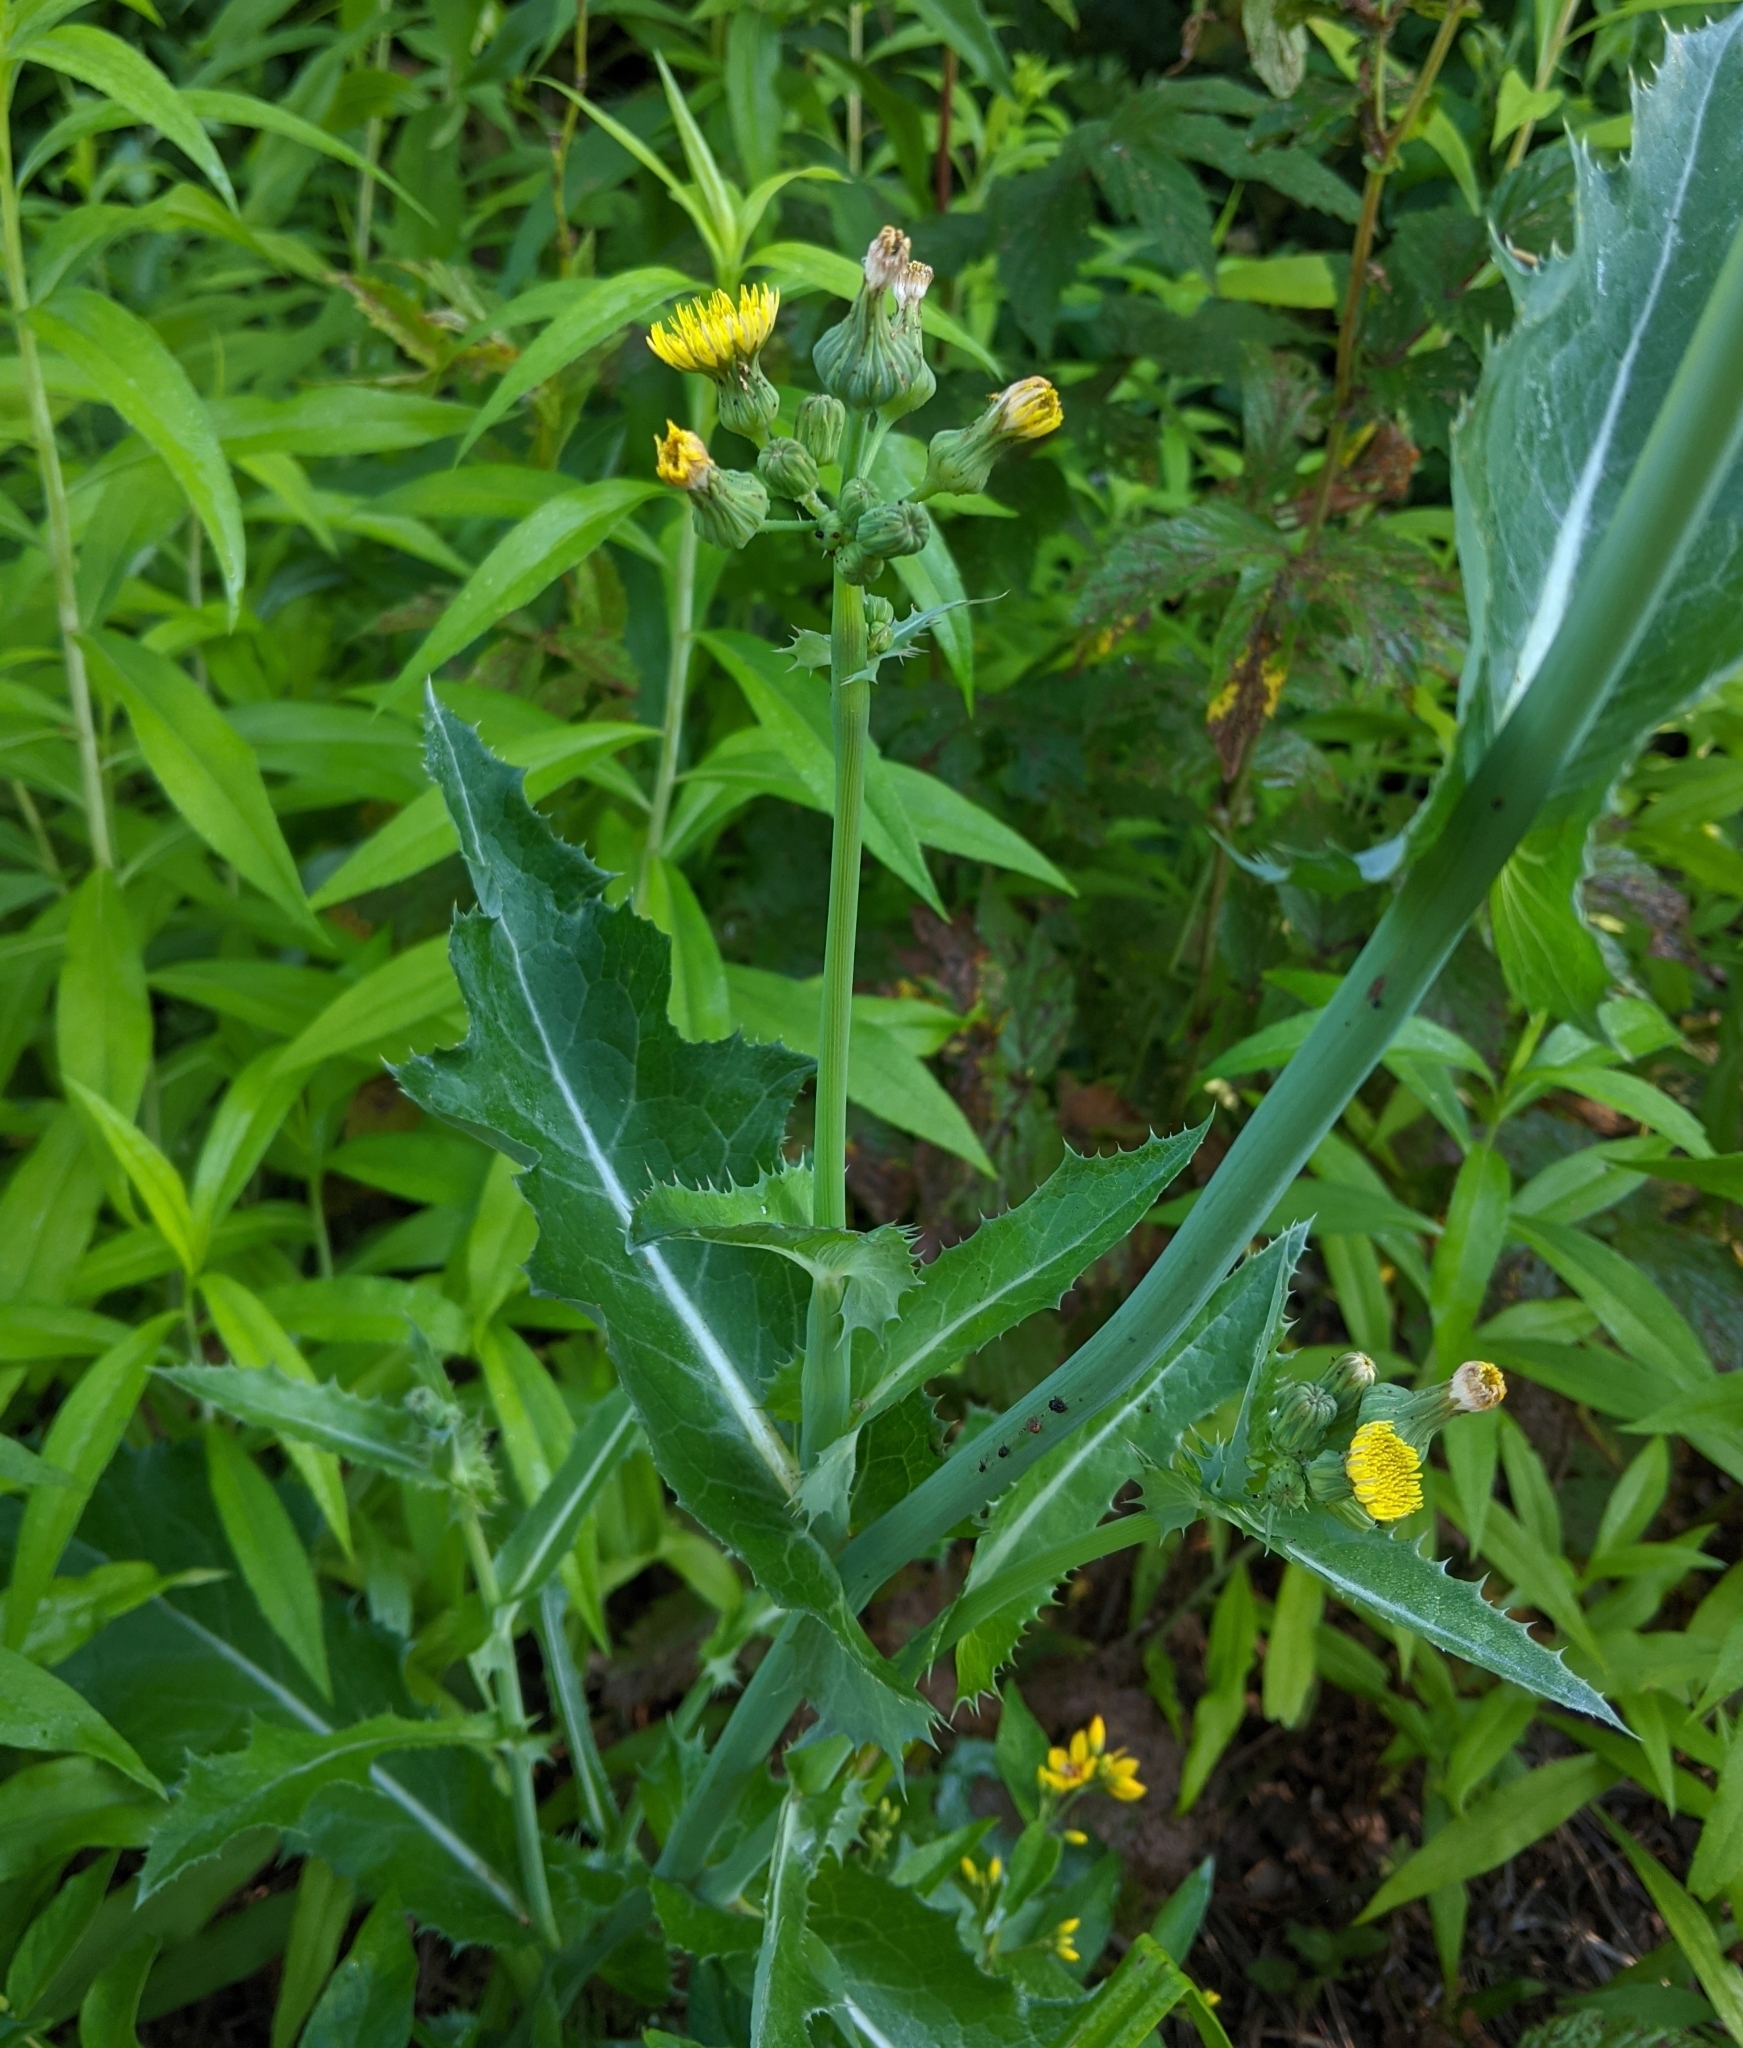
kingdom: Plantae
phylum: Tracheophyta
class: Magnoliopsida
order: Asterales
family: Asteraceae
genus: Sonchus
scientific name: Sonchus asper
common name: Prickly sow-thistle
